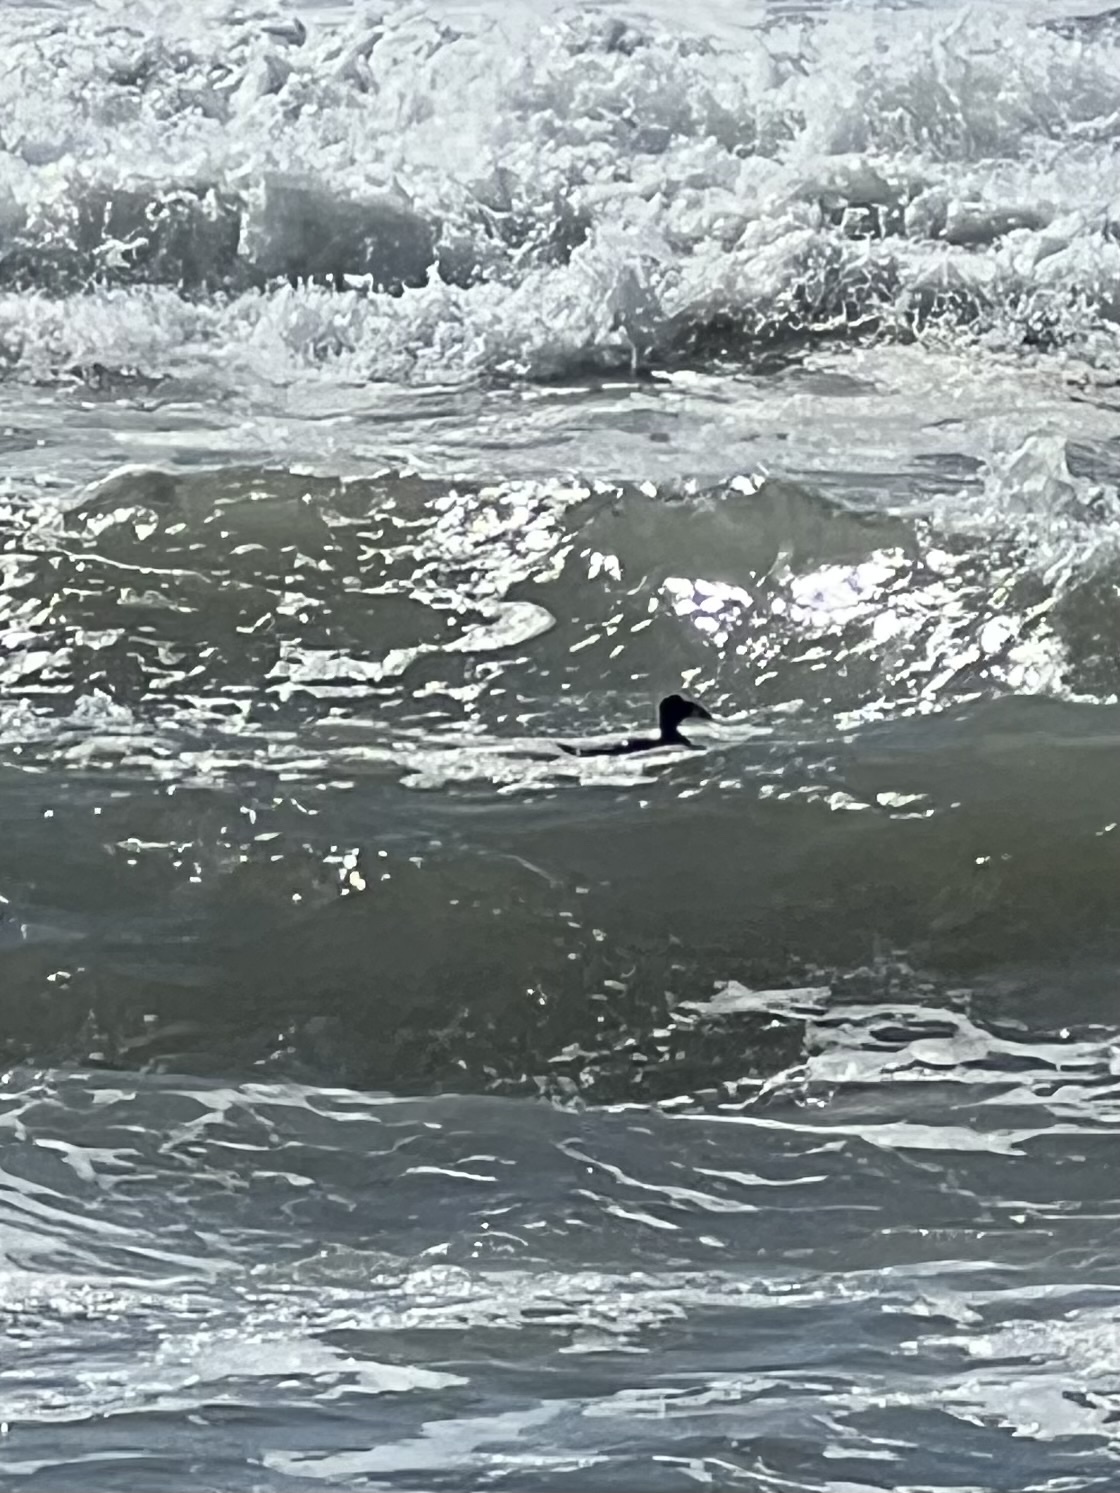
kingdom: Animalia
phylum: Chordata
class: Aves
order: Anseriformes
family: Anatidae
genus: Melanitta
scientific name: Melanitta perspicillata
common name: Surf scoter
